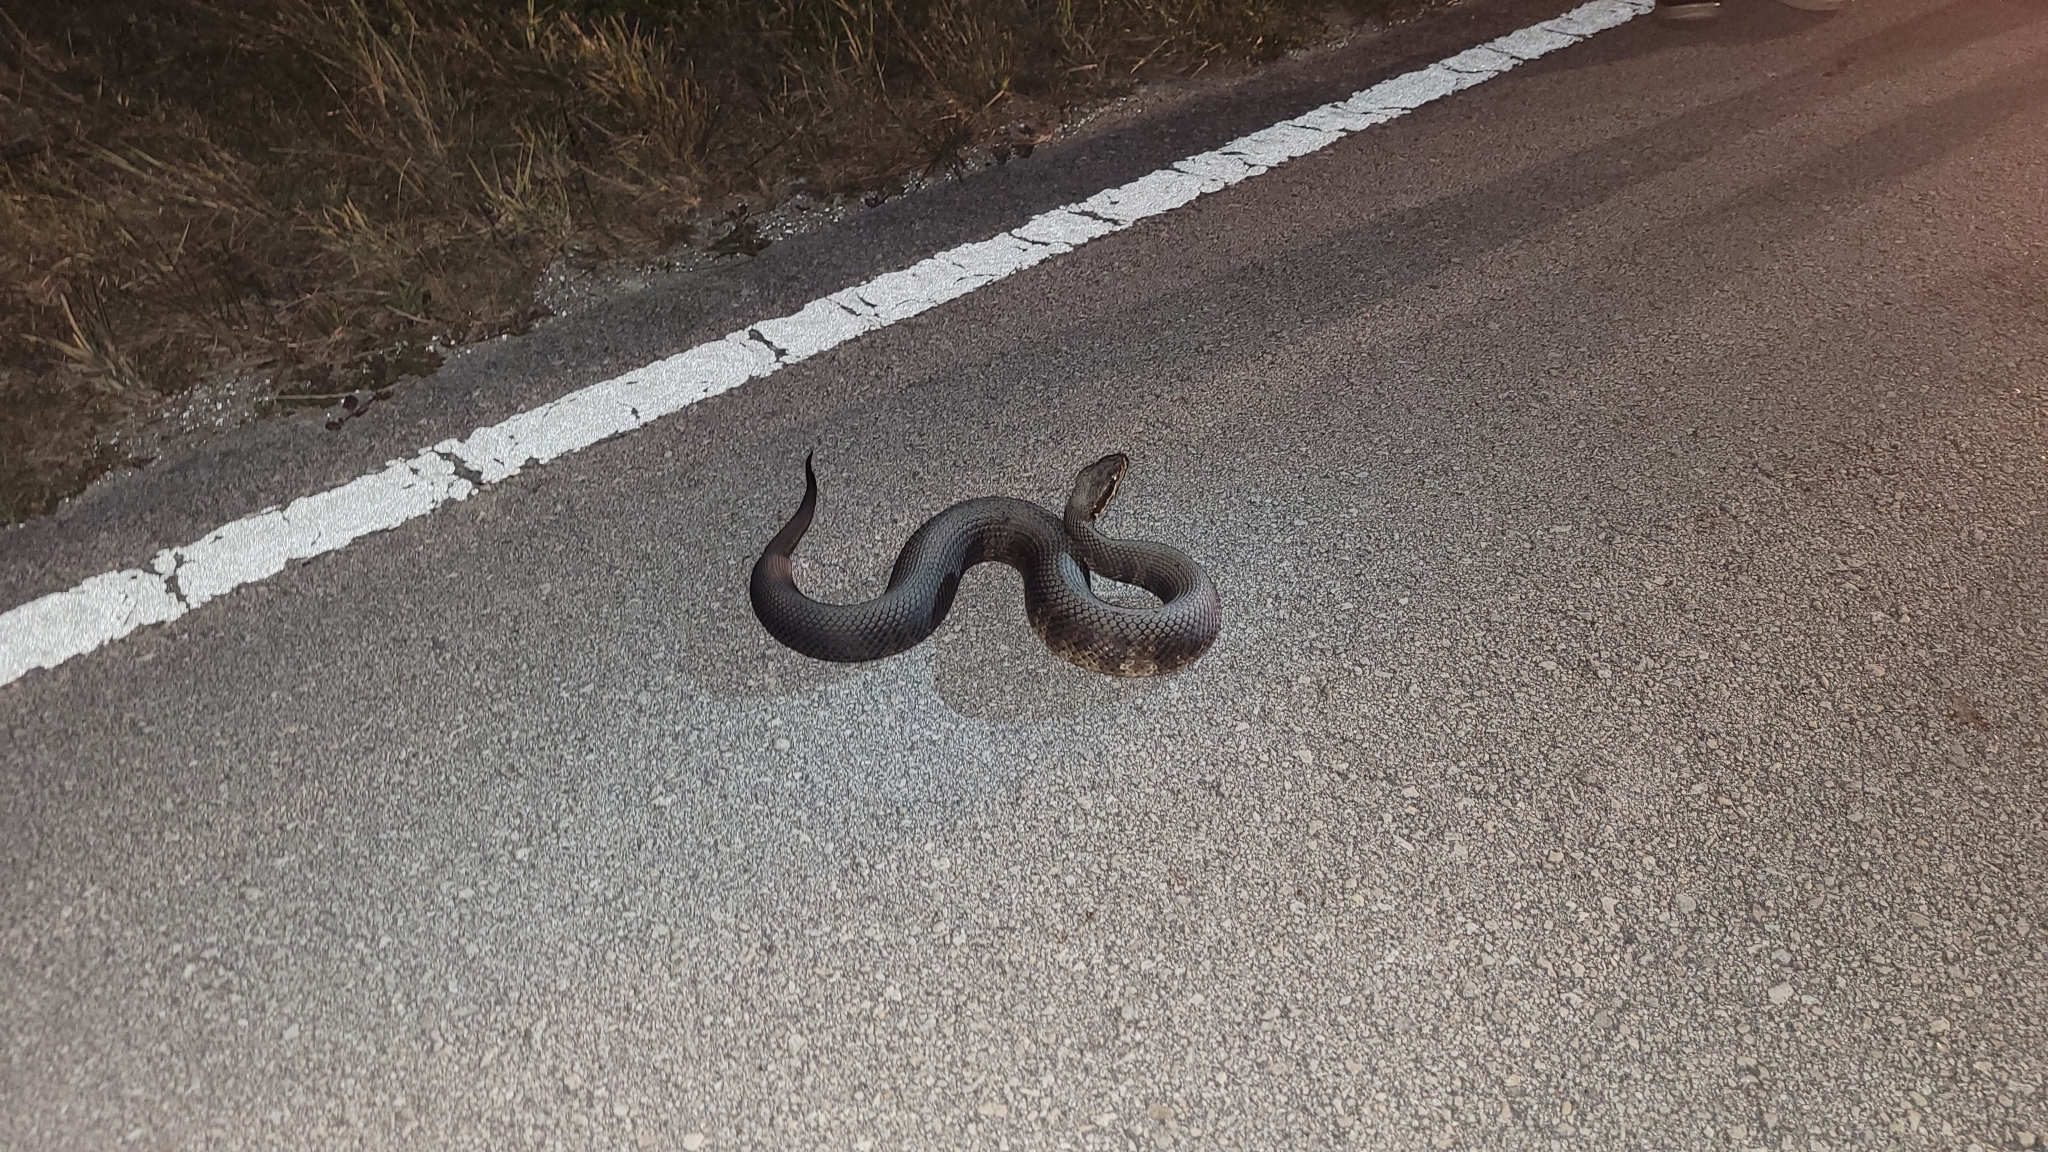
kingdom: Animalia
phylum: Chordata
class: Squamata
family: Viperidae
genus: Agkistrodon
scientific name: Agkistrodon conanti
